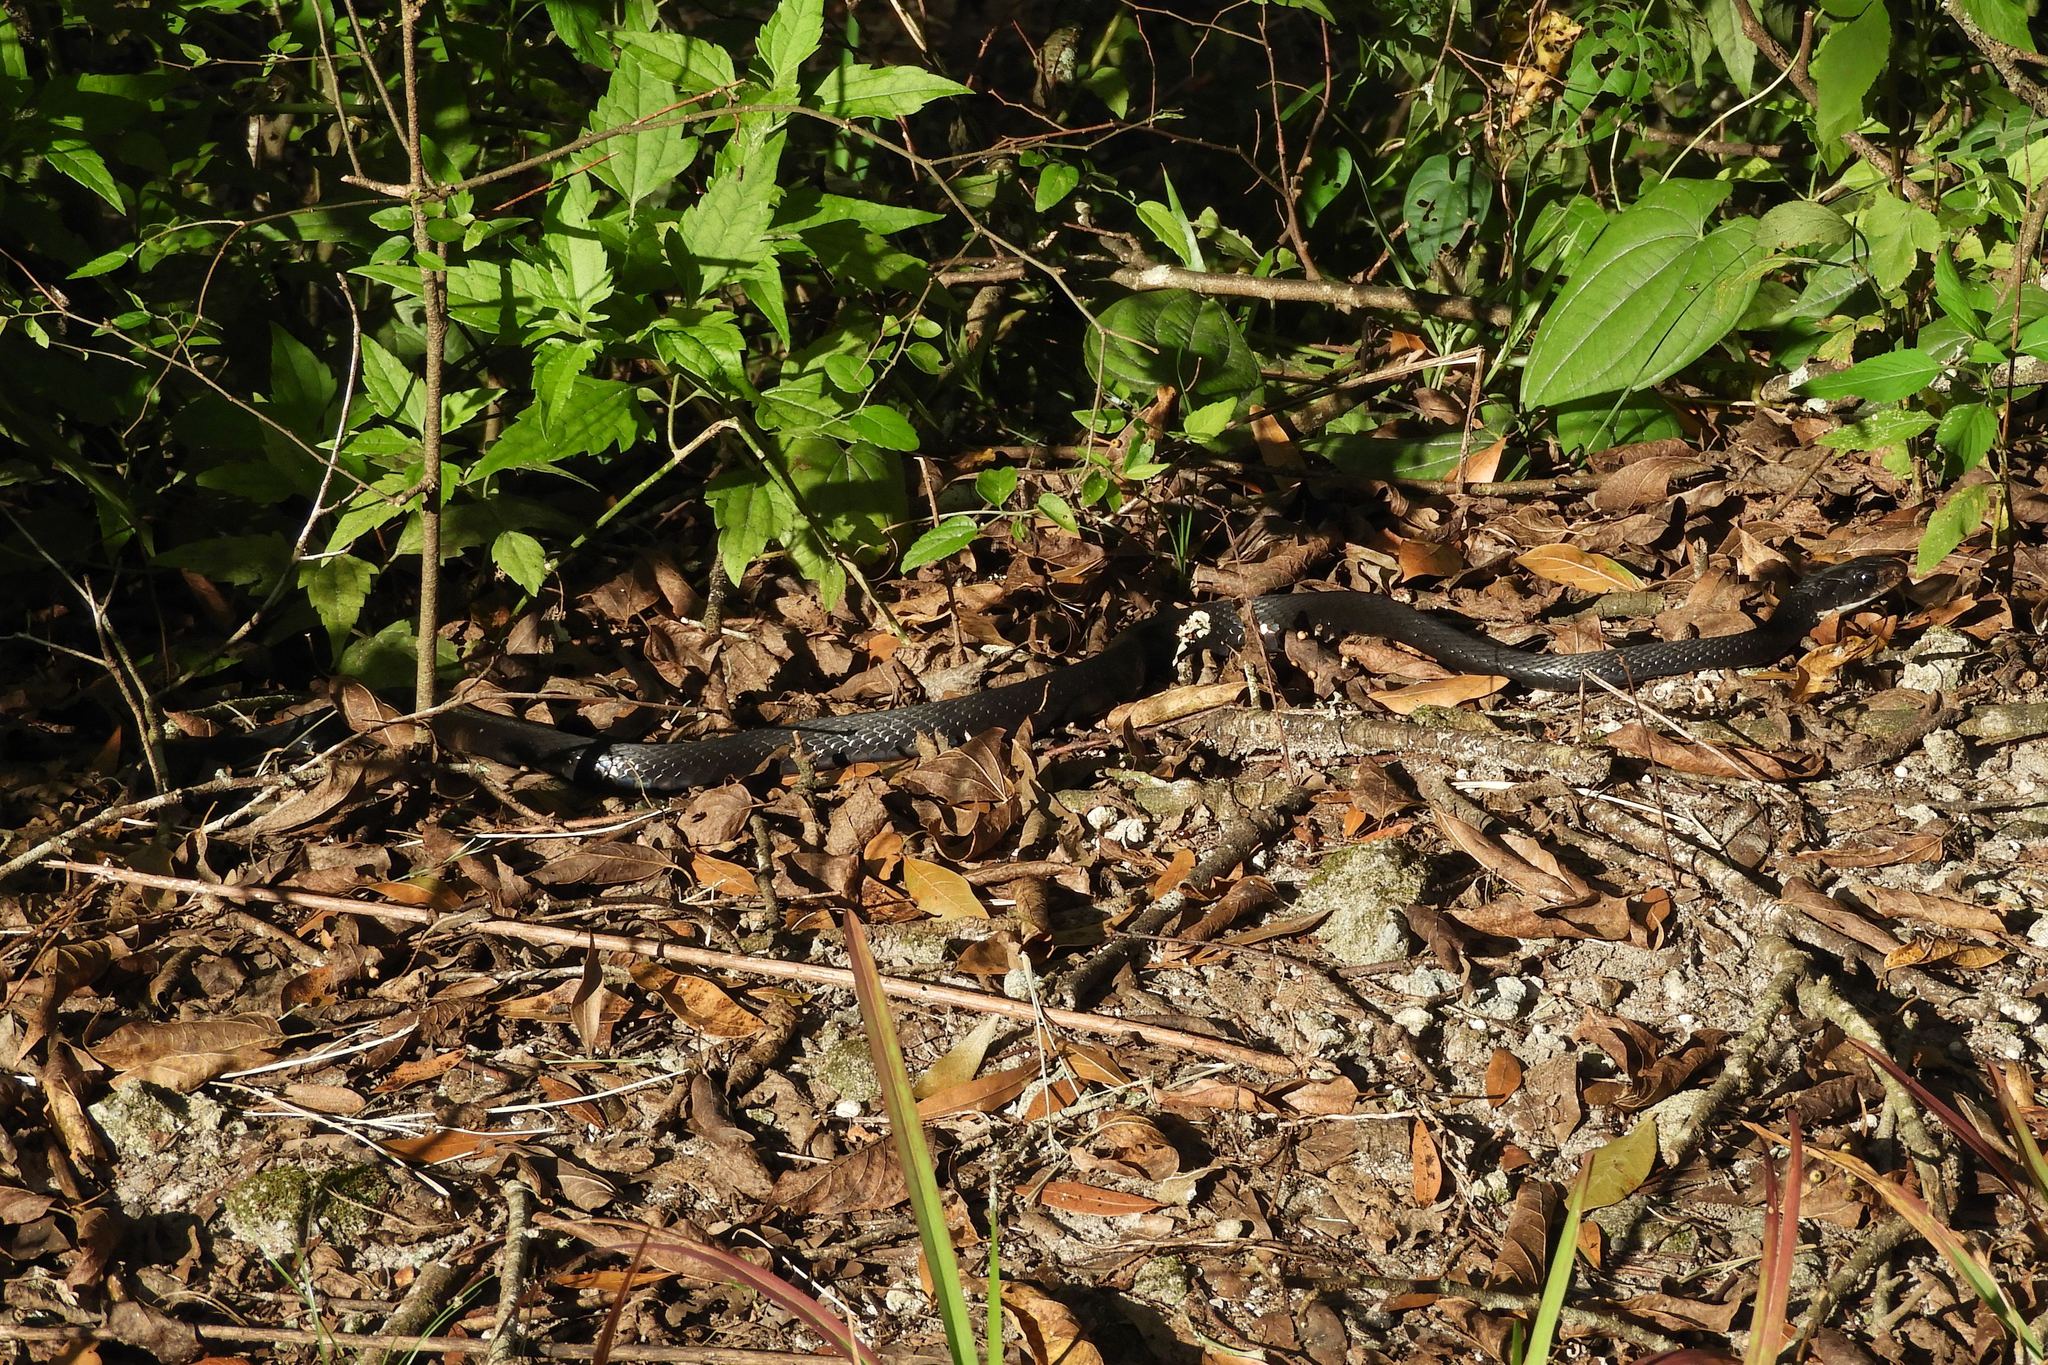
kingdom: Animalia
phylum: Chordata
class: Squamata
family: Colubridae
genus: Coluber
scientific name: Coluber constrictor
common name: Eastern racer
